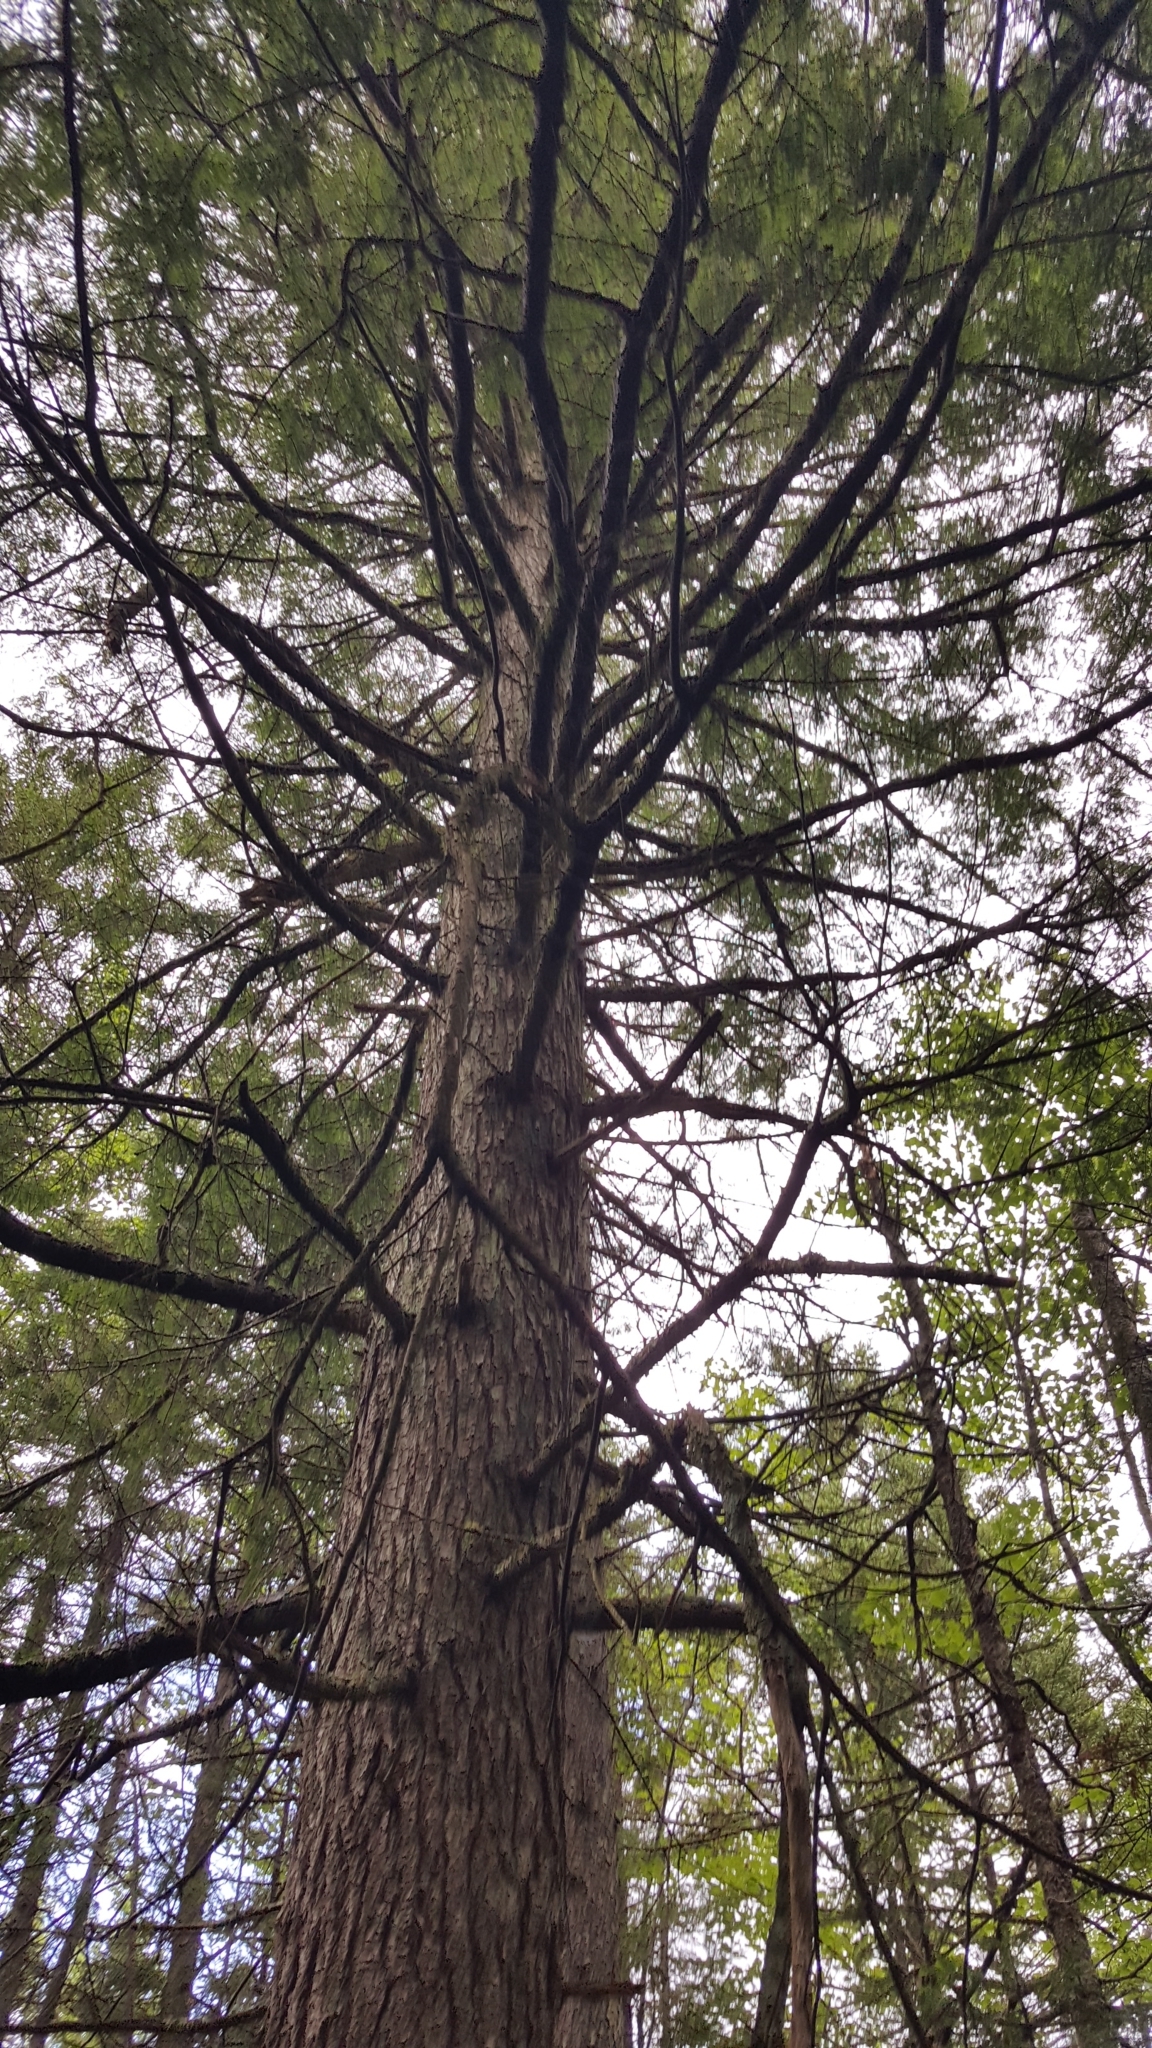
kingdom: Plantae
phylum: Tracheophyta
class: Pinopsida
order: Pinales
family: Pinaceae
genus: Tsuga
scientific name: Tsuga canadensis
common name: Eastern hemlock
